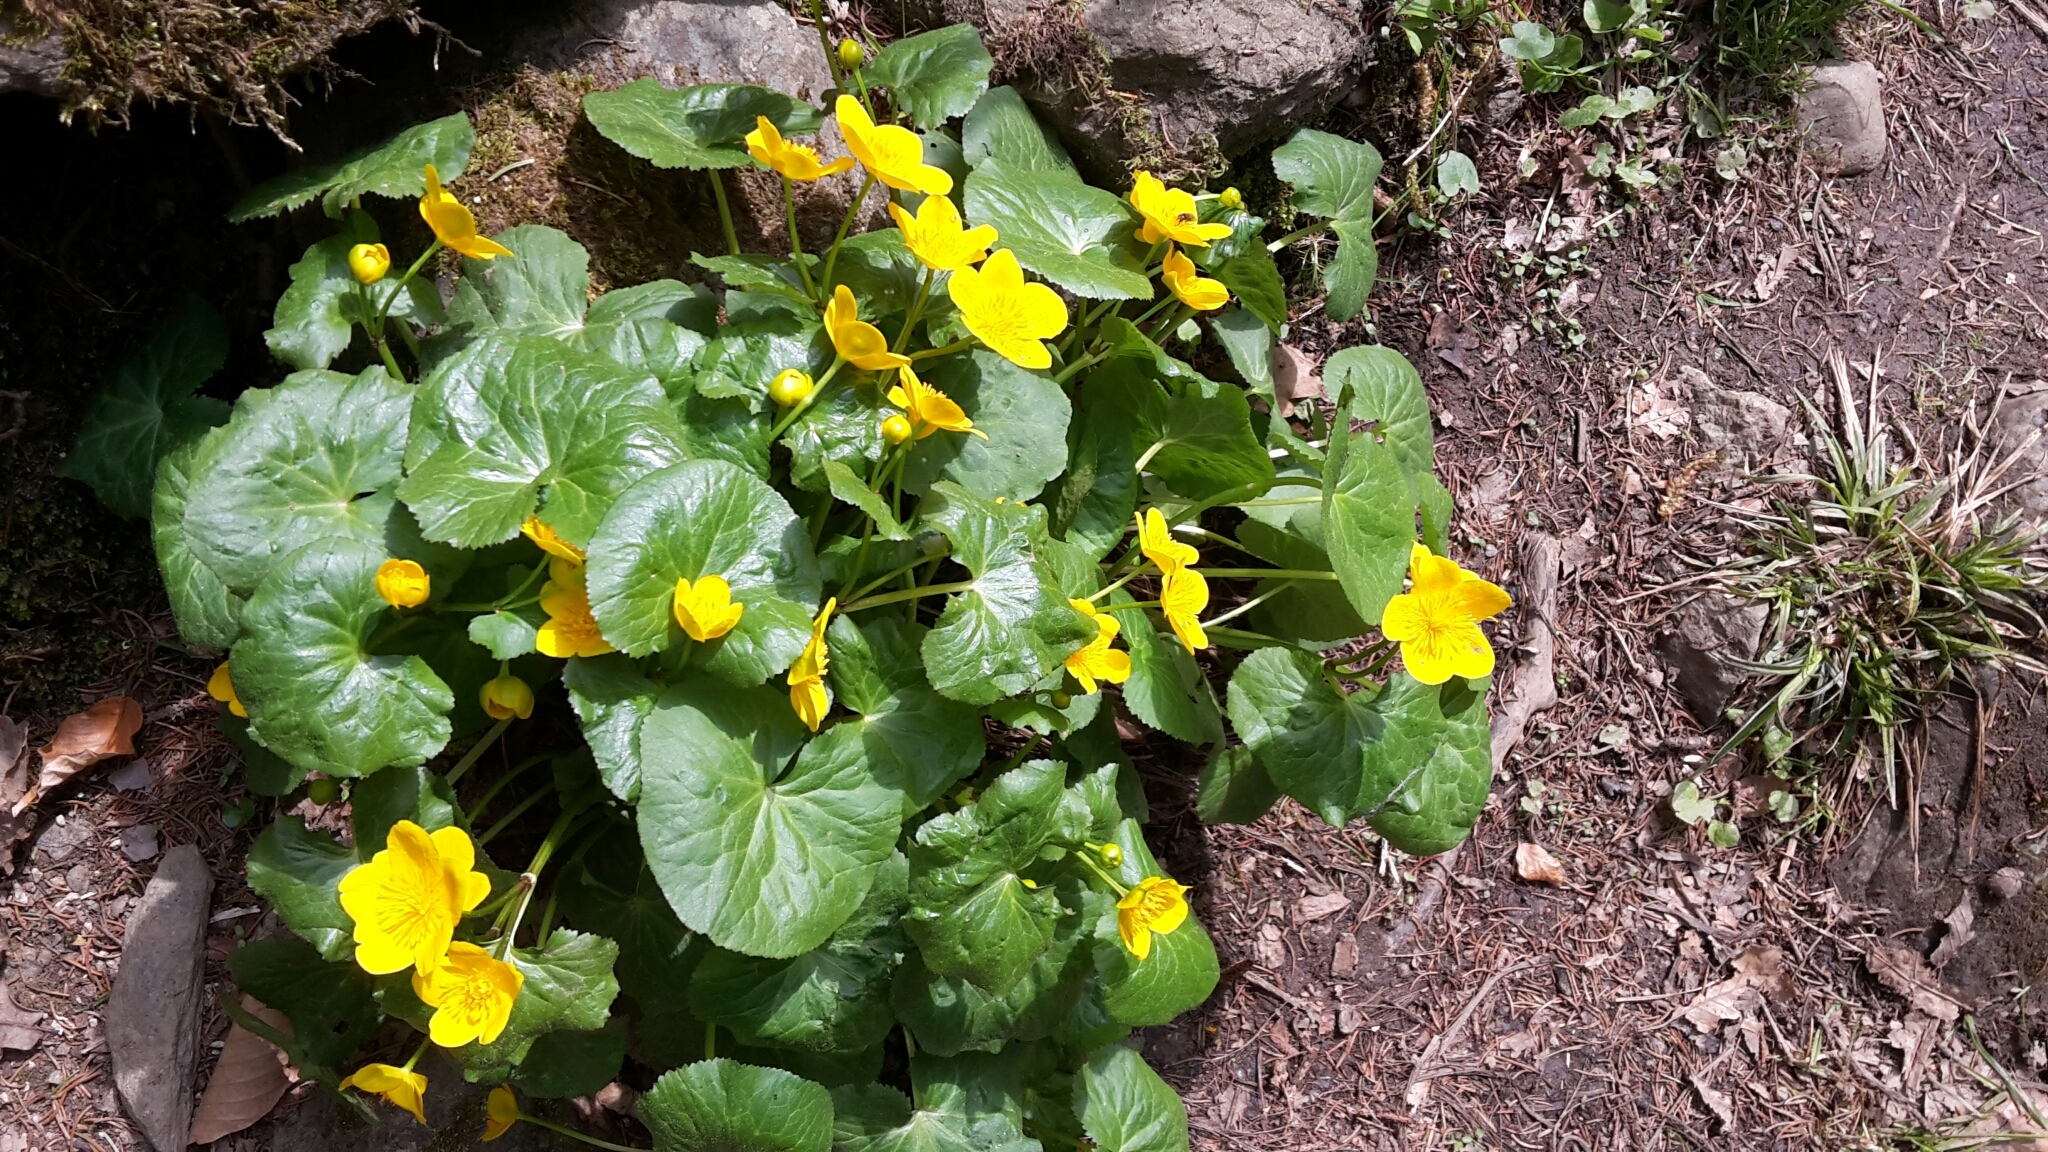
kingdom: Plantae
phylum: Tracheophyta
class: Magnoliopsida
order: Ranunculales
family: Ranunculaceae
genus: Caltha
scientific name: Caltha palustris
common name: Marsh marigold
